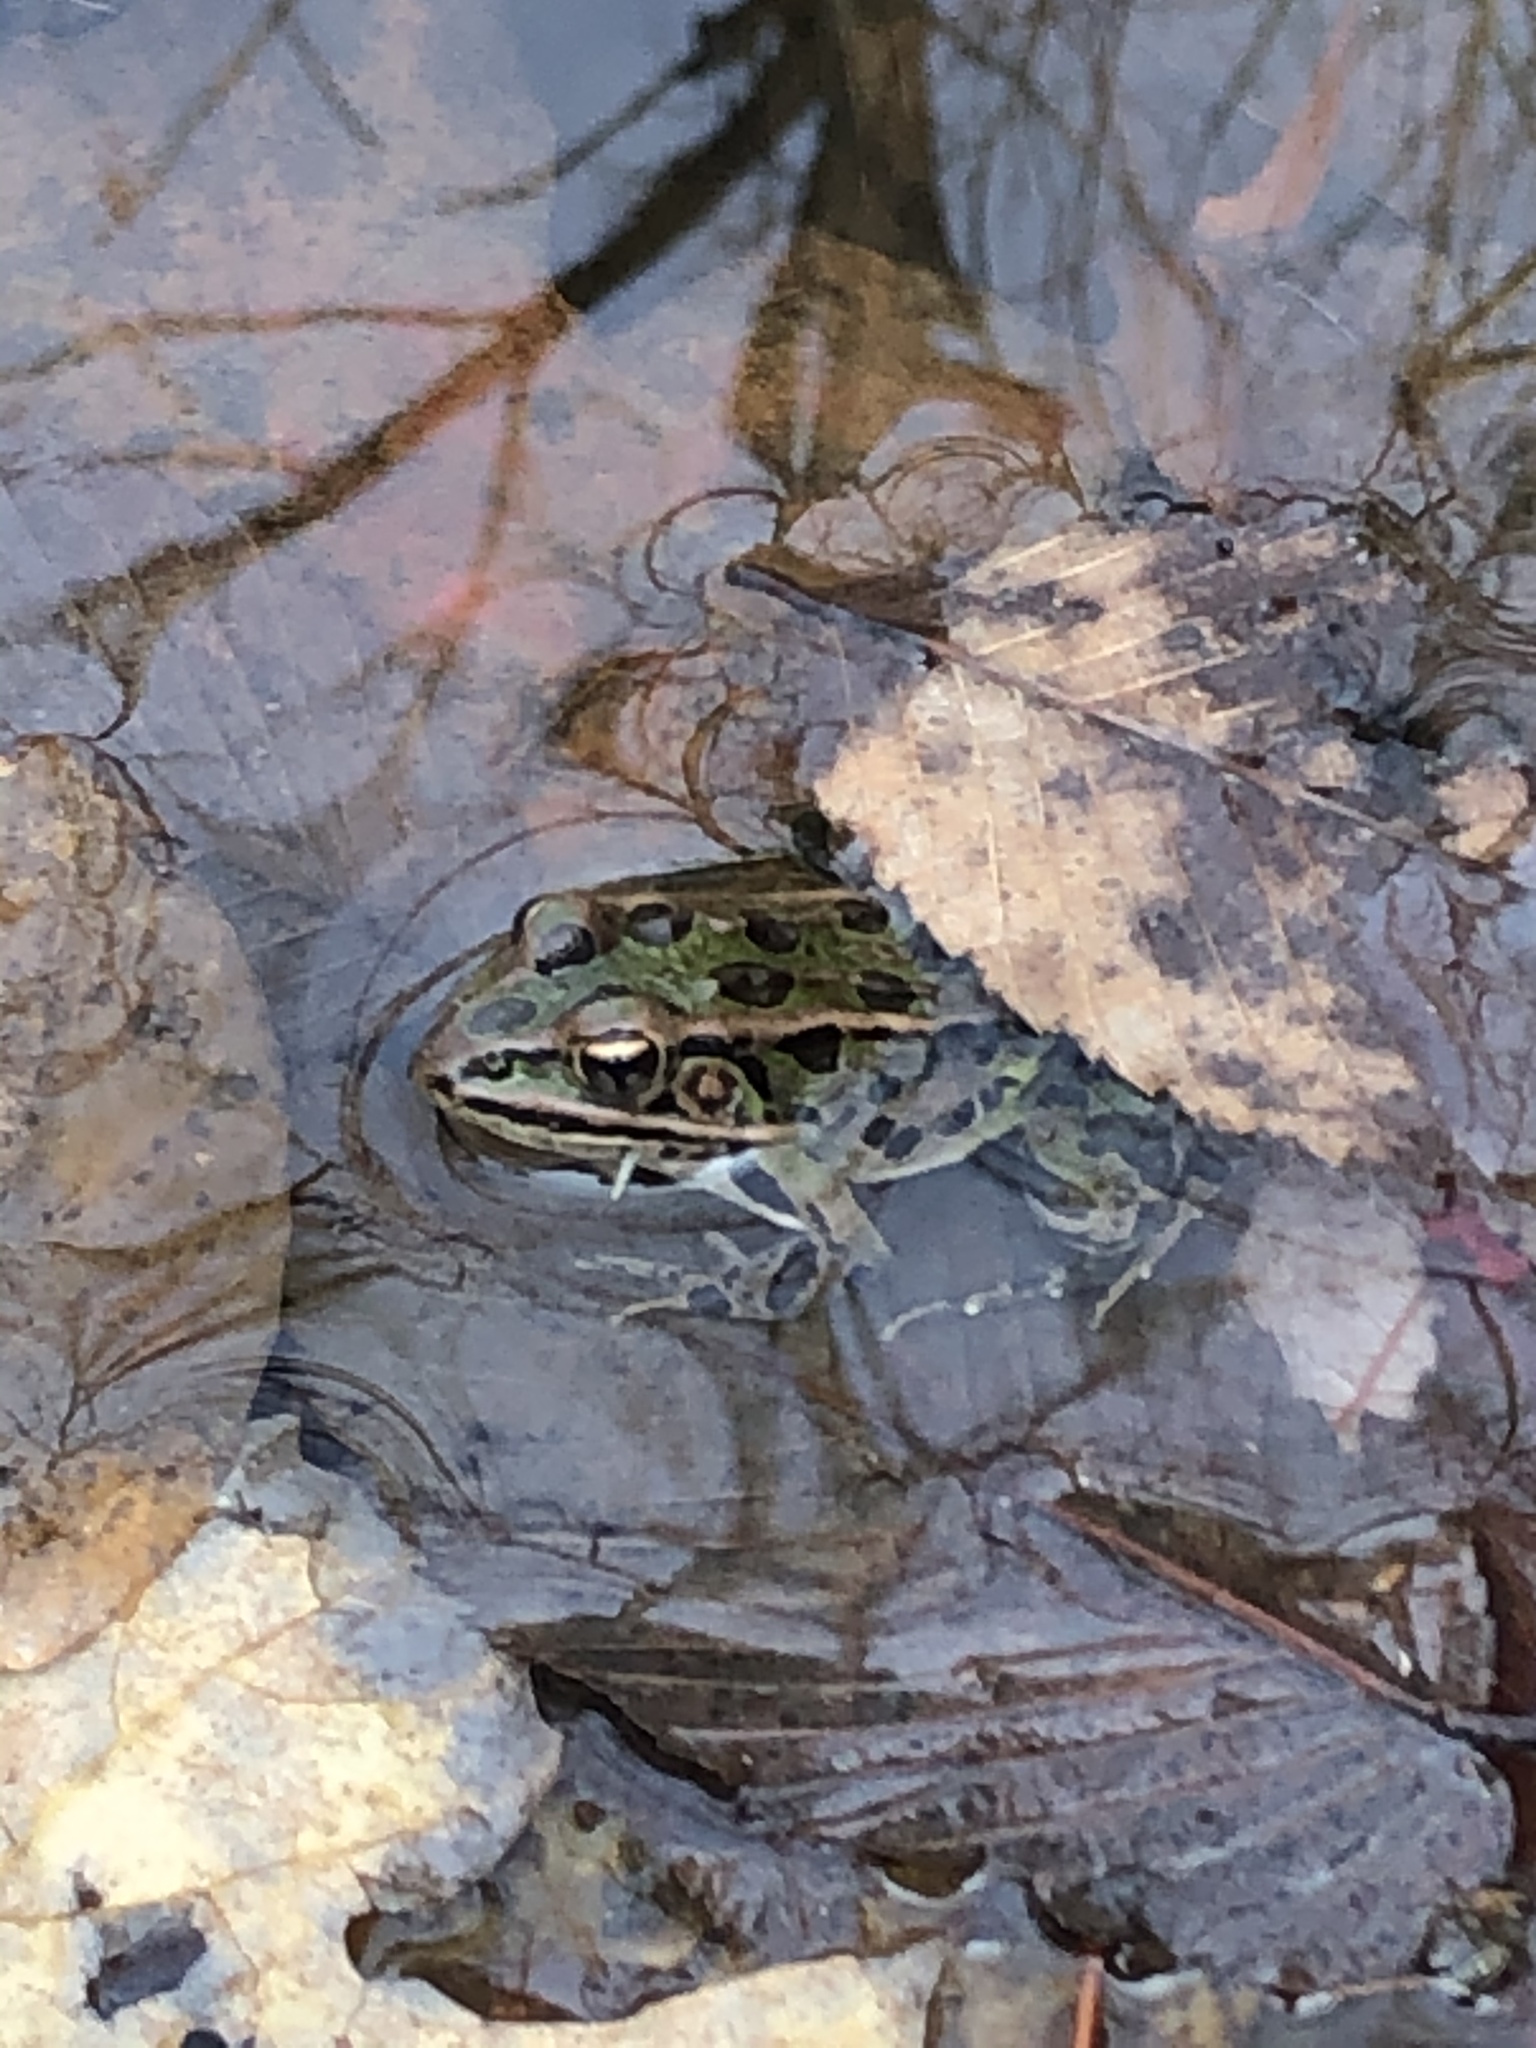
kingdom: Animalia
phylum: Chordata
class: Amphibia
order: Anura
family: Ranidae
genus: Lithobates
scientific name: Lithobates pipiens
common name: Northern leopard frog
